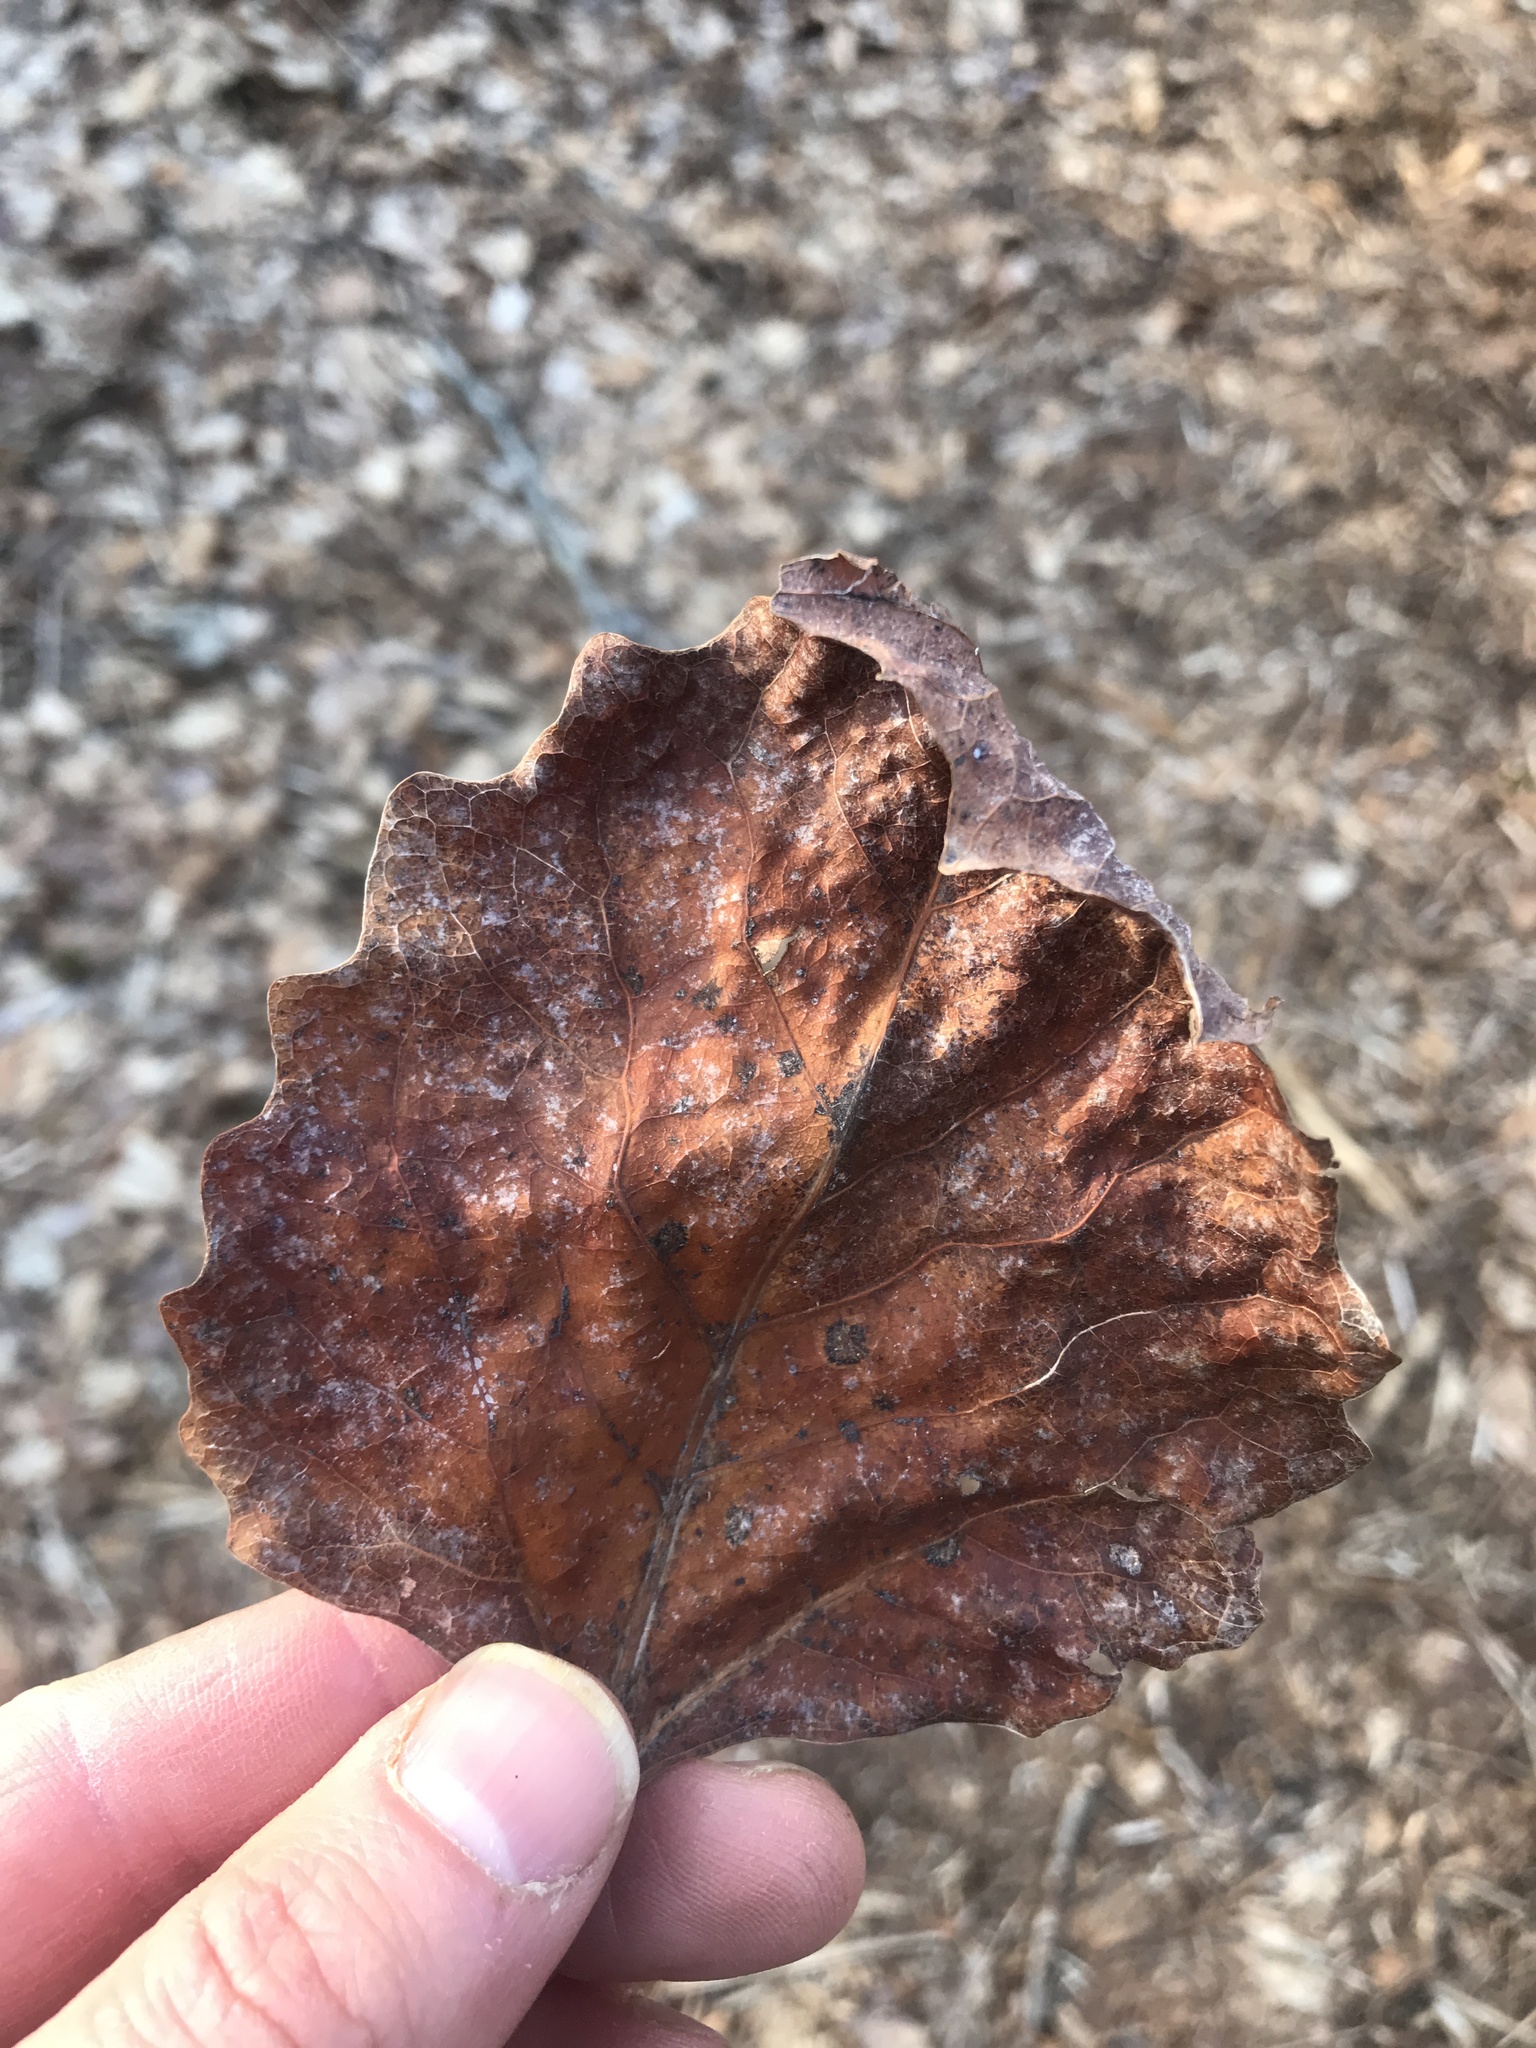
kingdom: Plantae
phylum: Tracheophyta
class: Magnoliopsida
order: Malpighiales
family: Salicaceae
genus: Populus
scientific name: Populus grandidentata
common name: Bigtooth aspen
